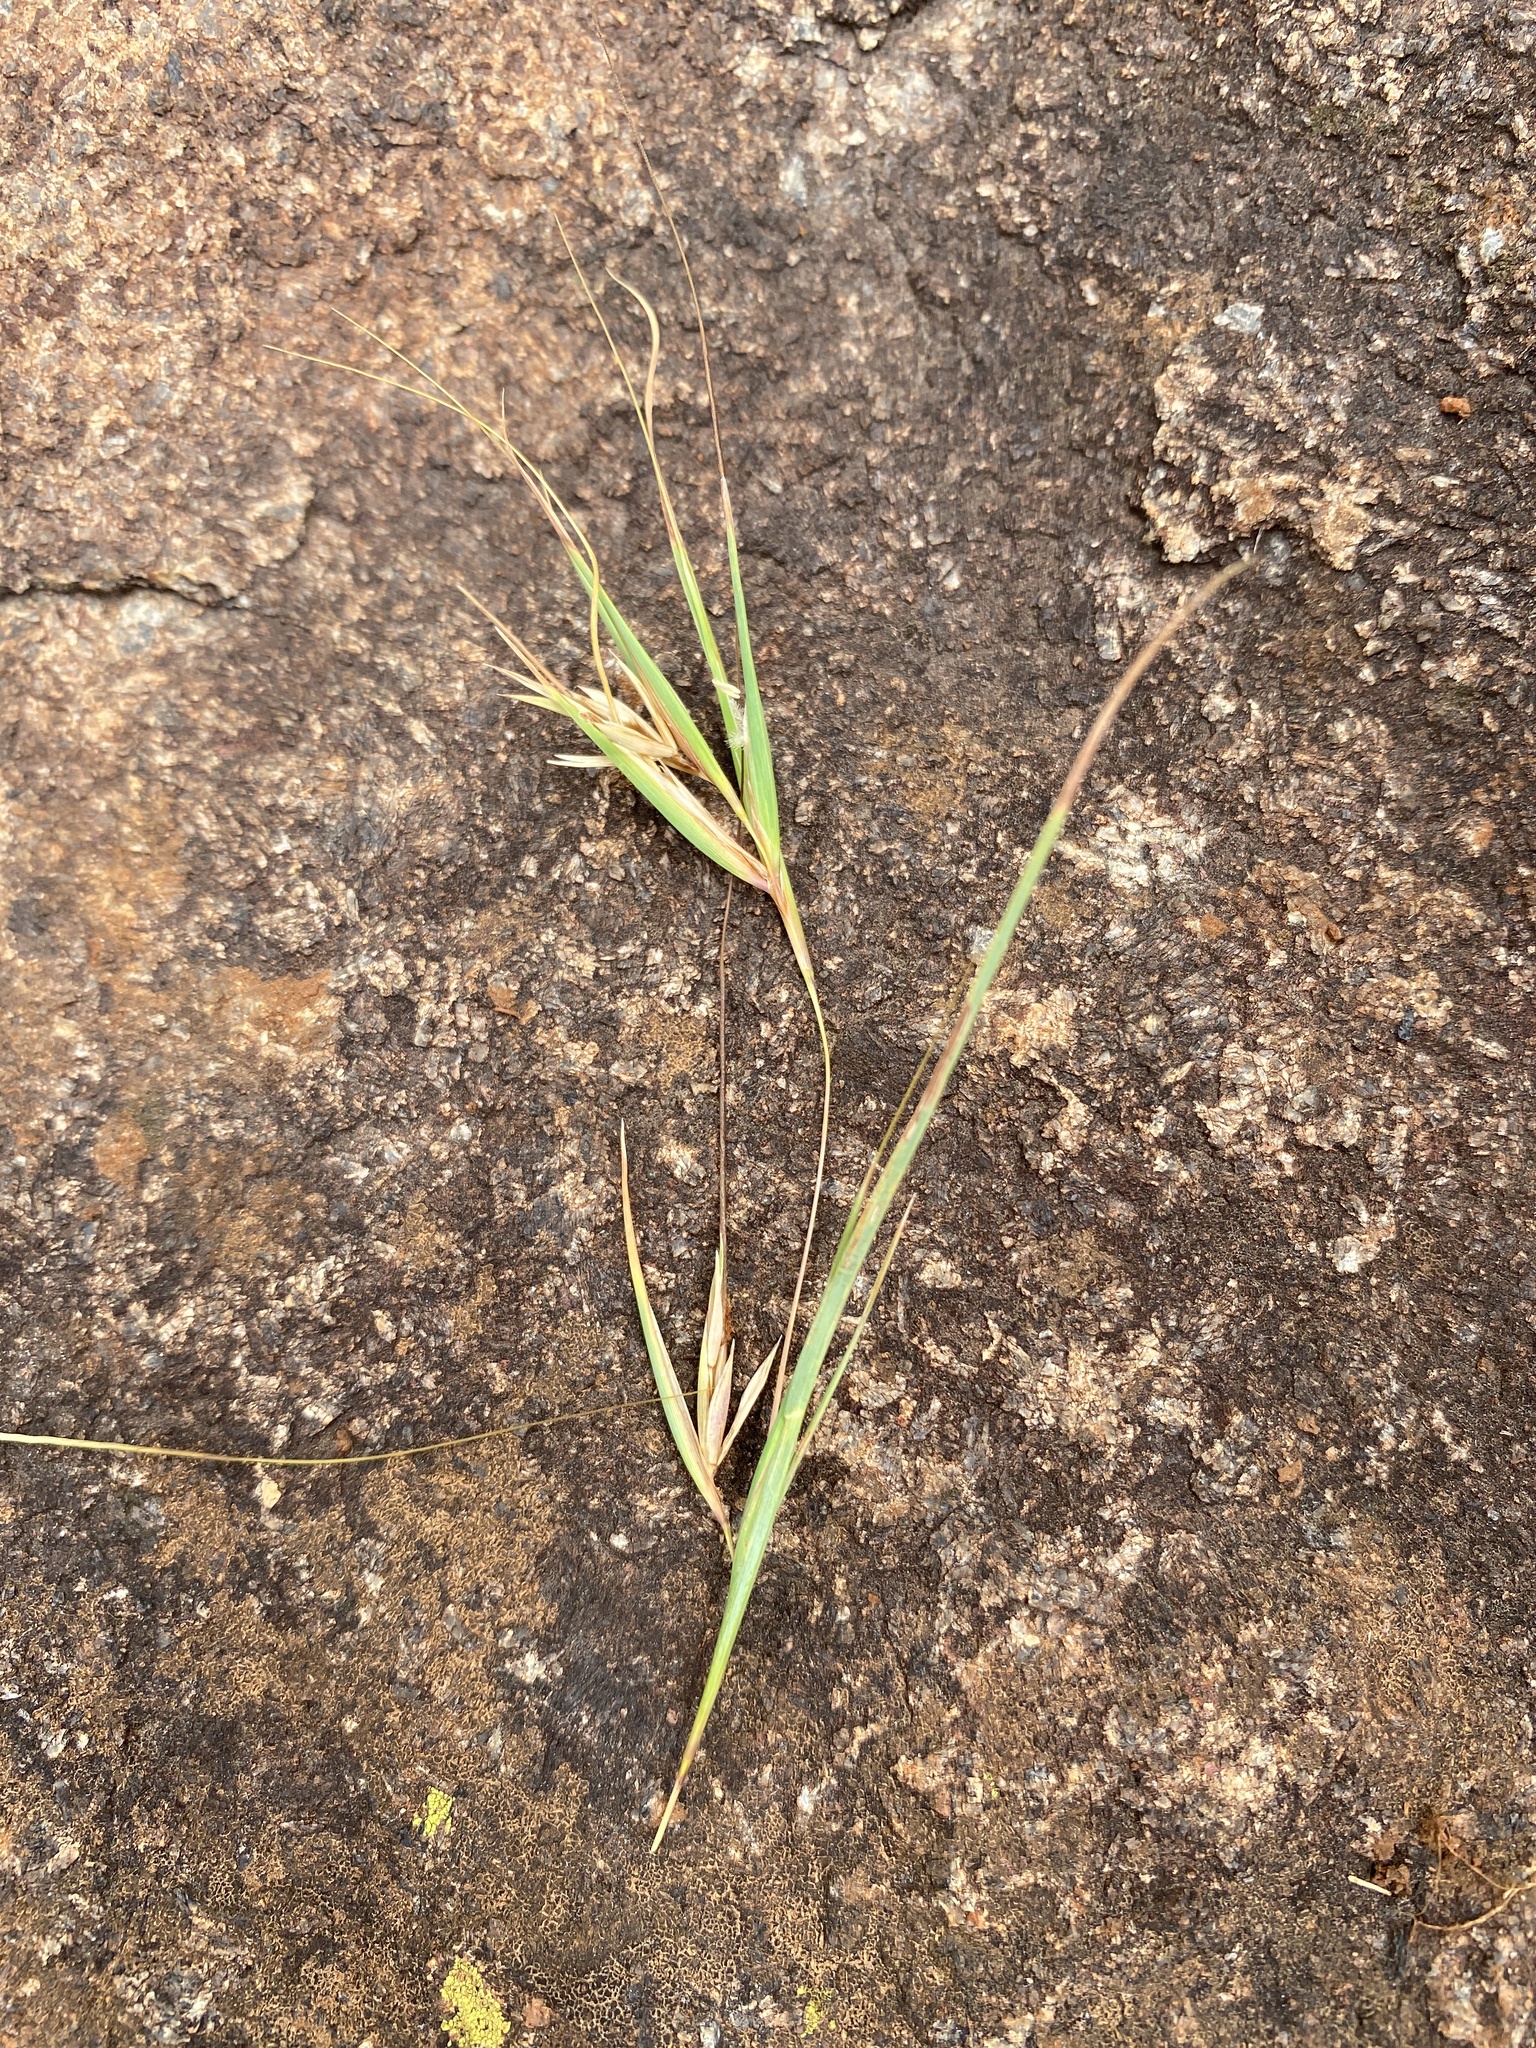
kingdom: Plantae
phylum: Tracheophyta
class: Liliopsida
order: Poales
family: Poaceae
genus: Themeda
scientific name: Themeda triandra
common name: Kangaroo grass
